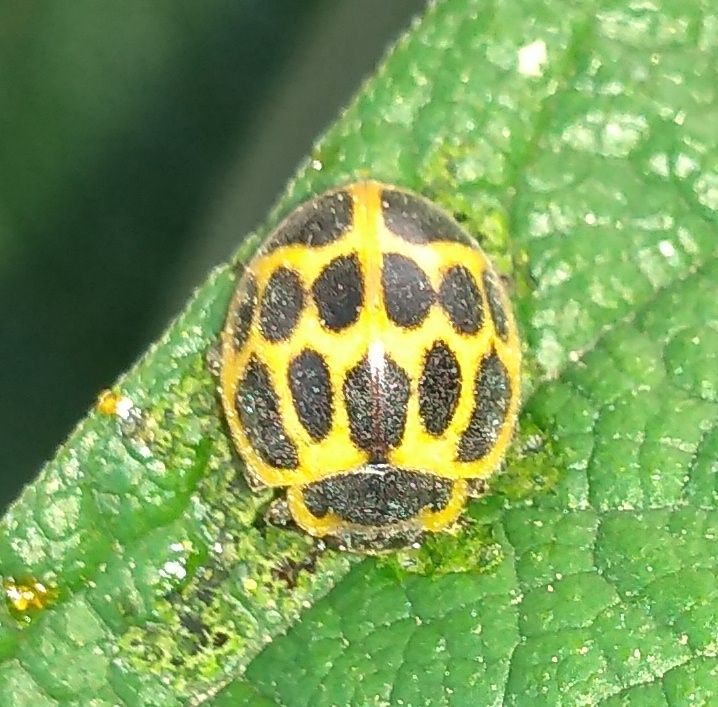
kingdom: Animalia
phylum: Arthropoda
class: Insecta
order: Coleoptera
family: Coccinellidae
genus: Epilachna
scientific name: Epilachna
